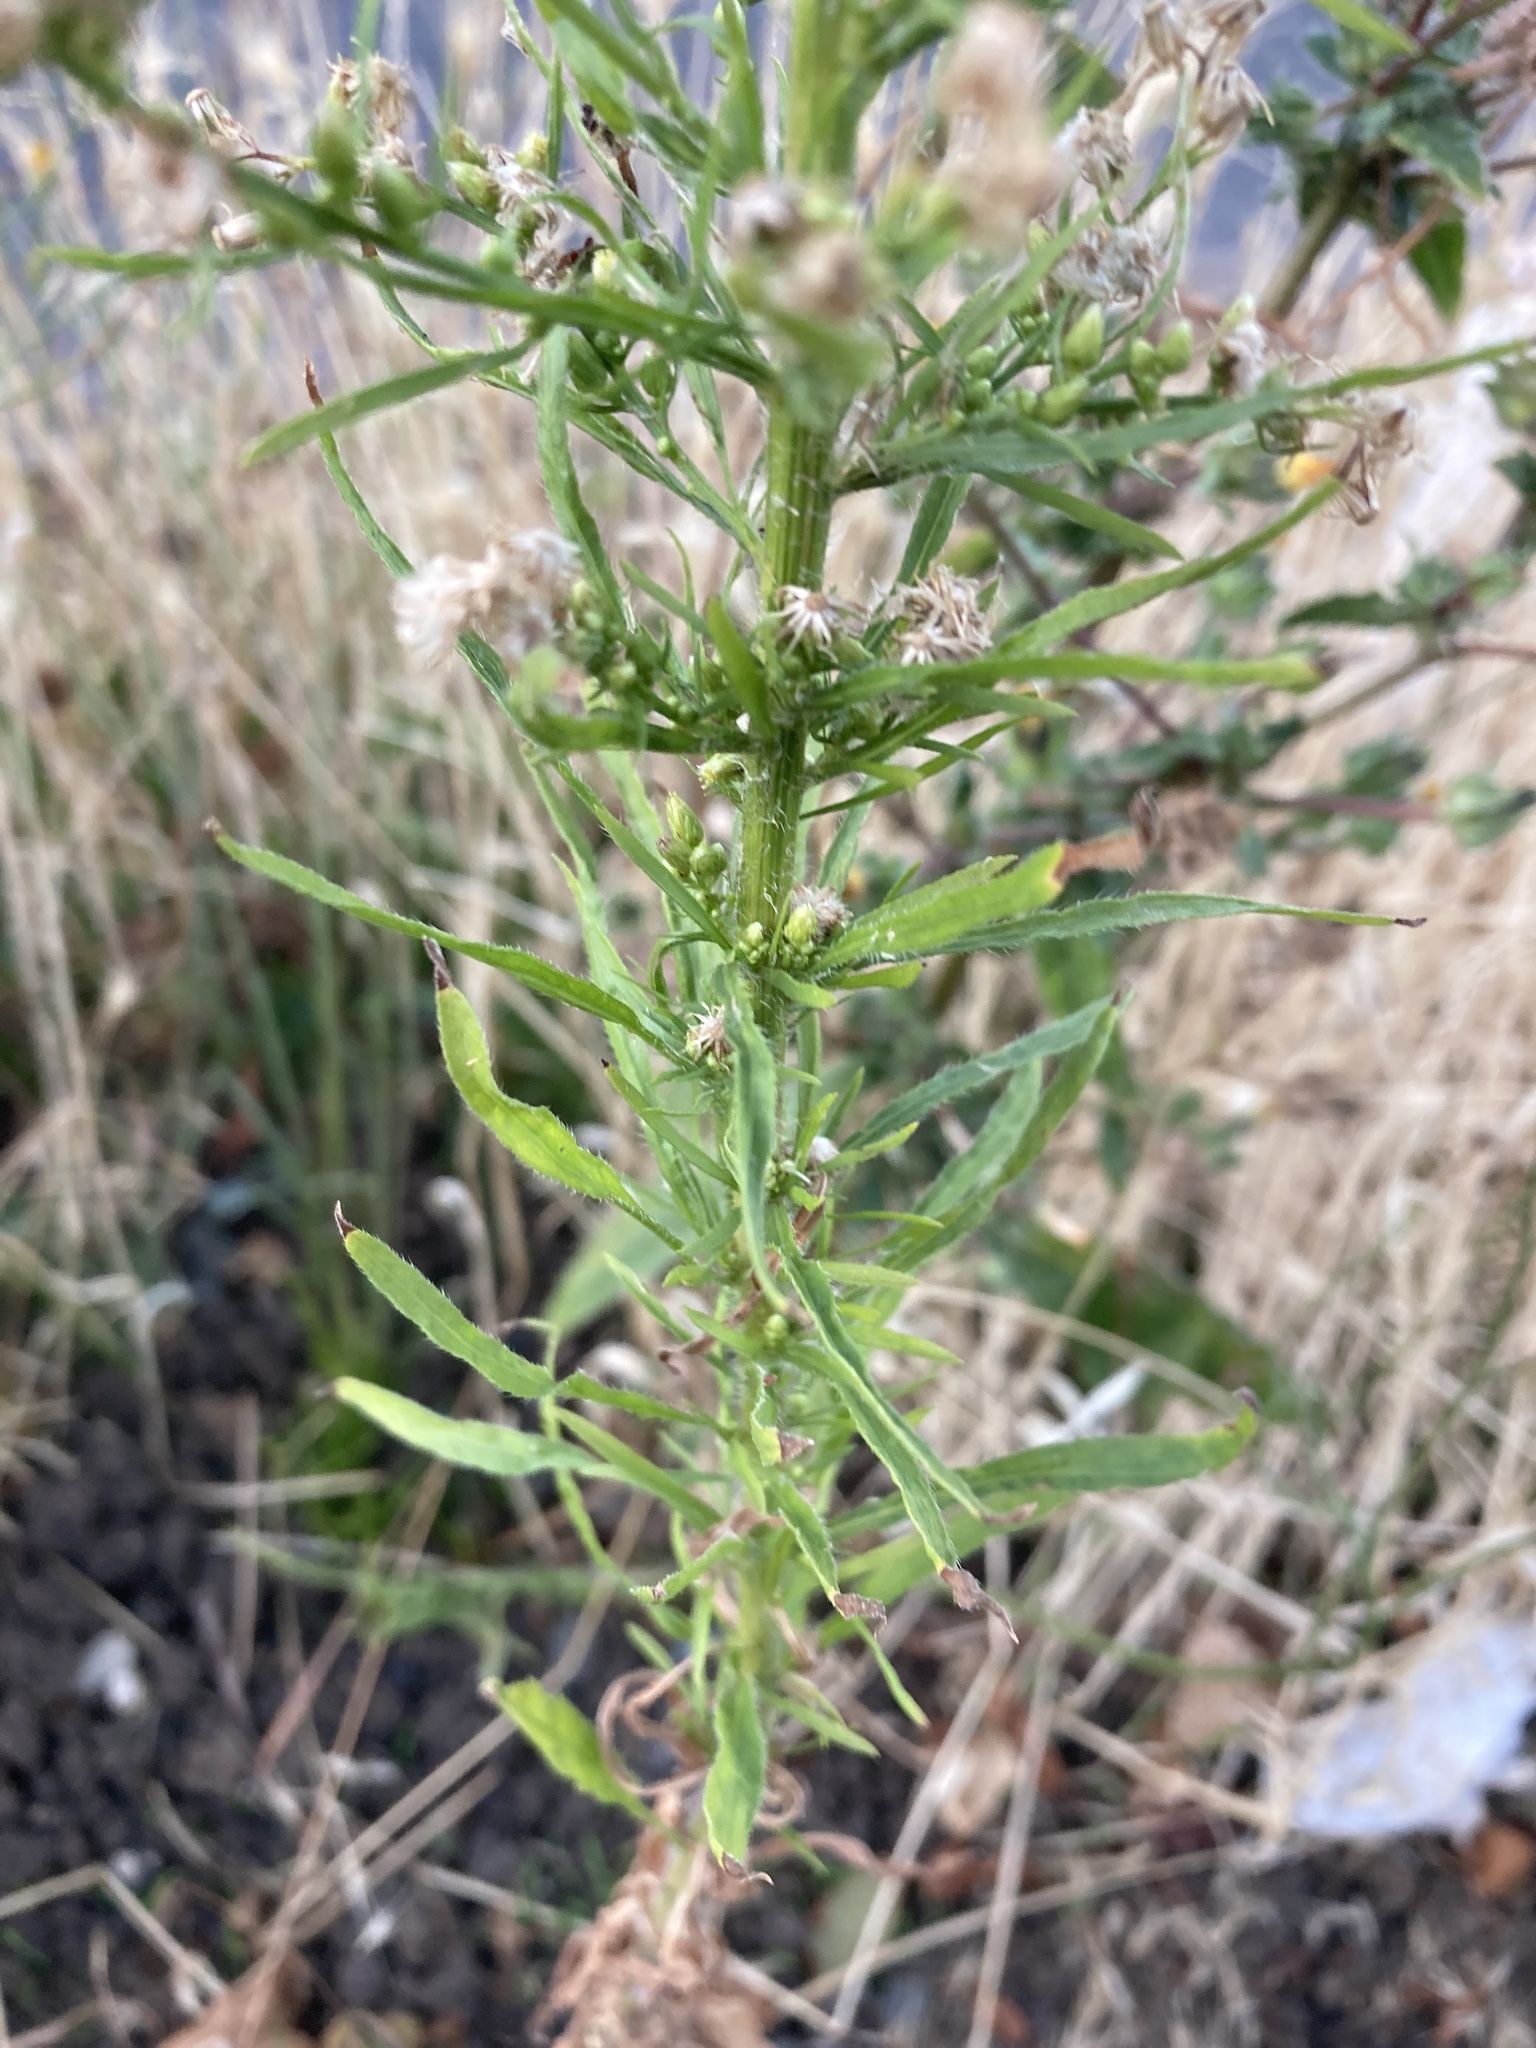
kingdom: Plantae
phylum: Tracheophyta
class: Magnoliopsida
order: Asterales
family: Asteraceae
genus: Erigeron
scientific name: Erigeron canadensis
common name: Canadian fleabane
